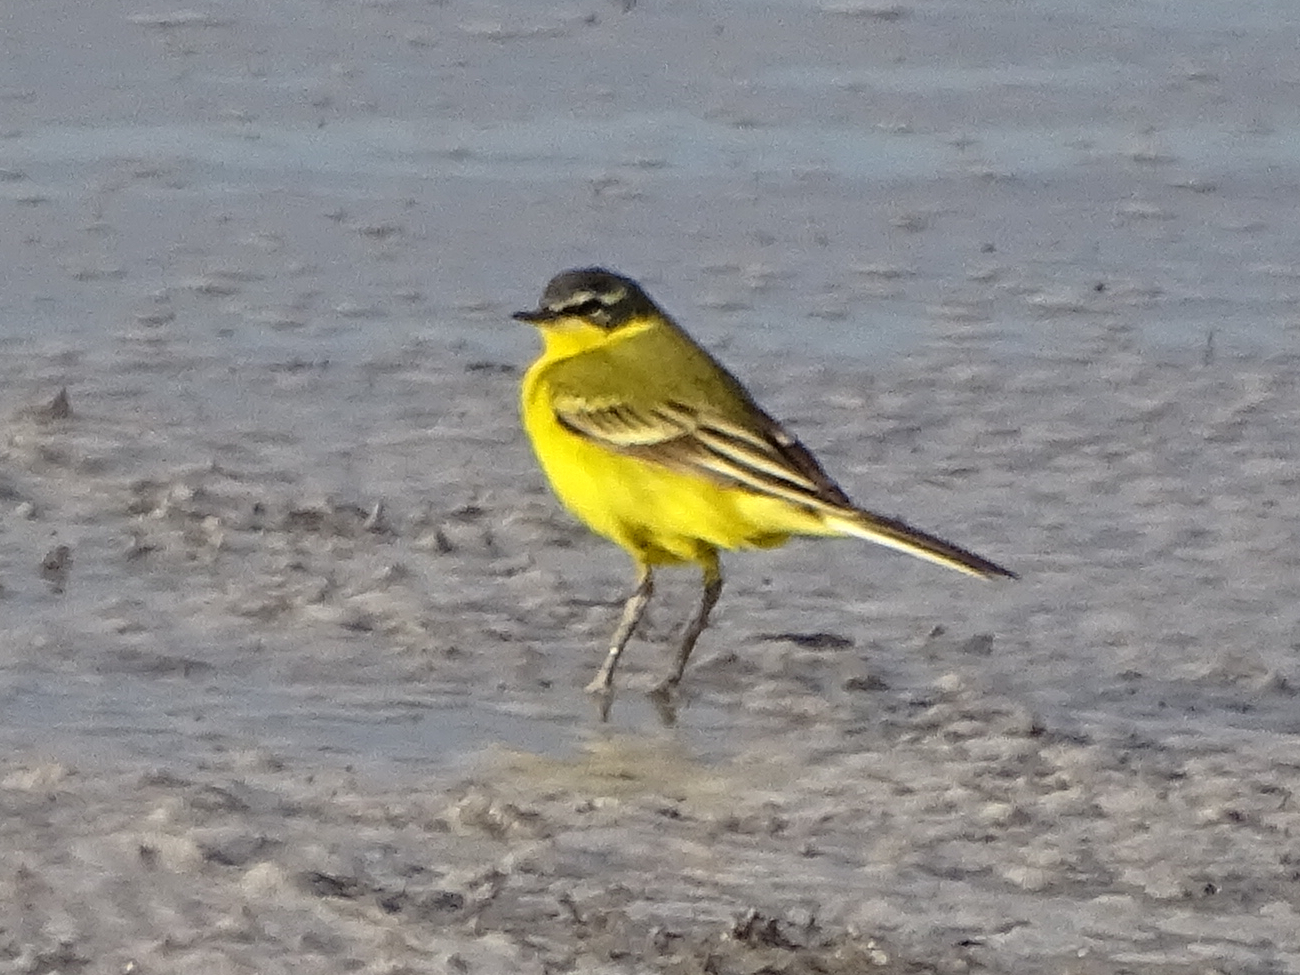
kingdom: Animalia
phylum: Chordata
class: Aves
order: Passeriformes
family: Motacillidae
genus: Motacilla
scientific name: Motacilla flava
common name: Western yellow wagtail
